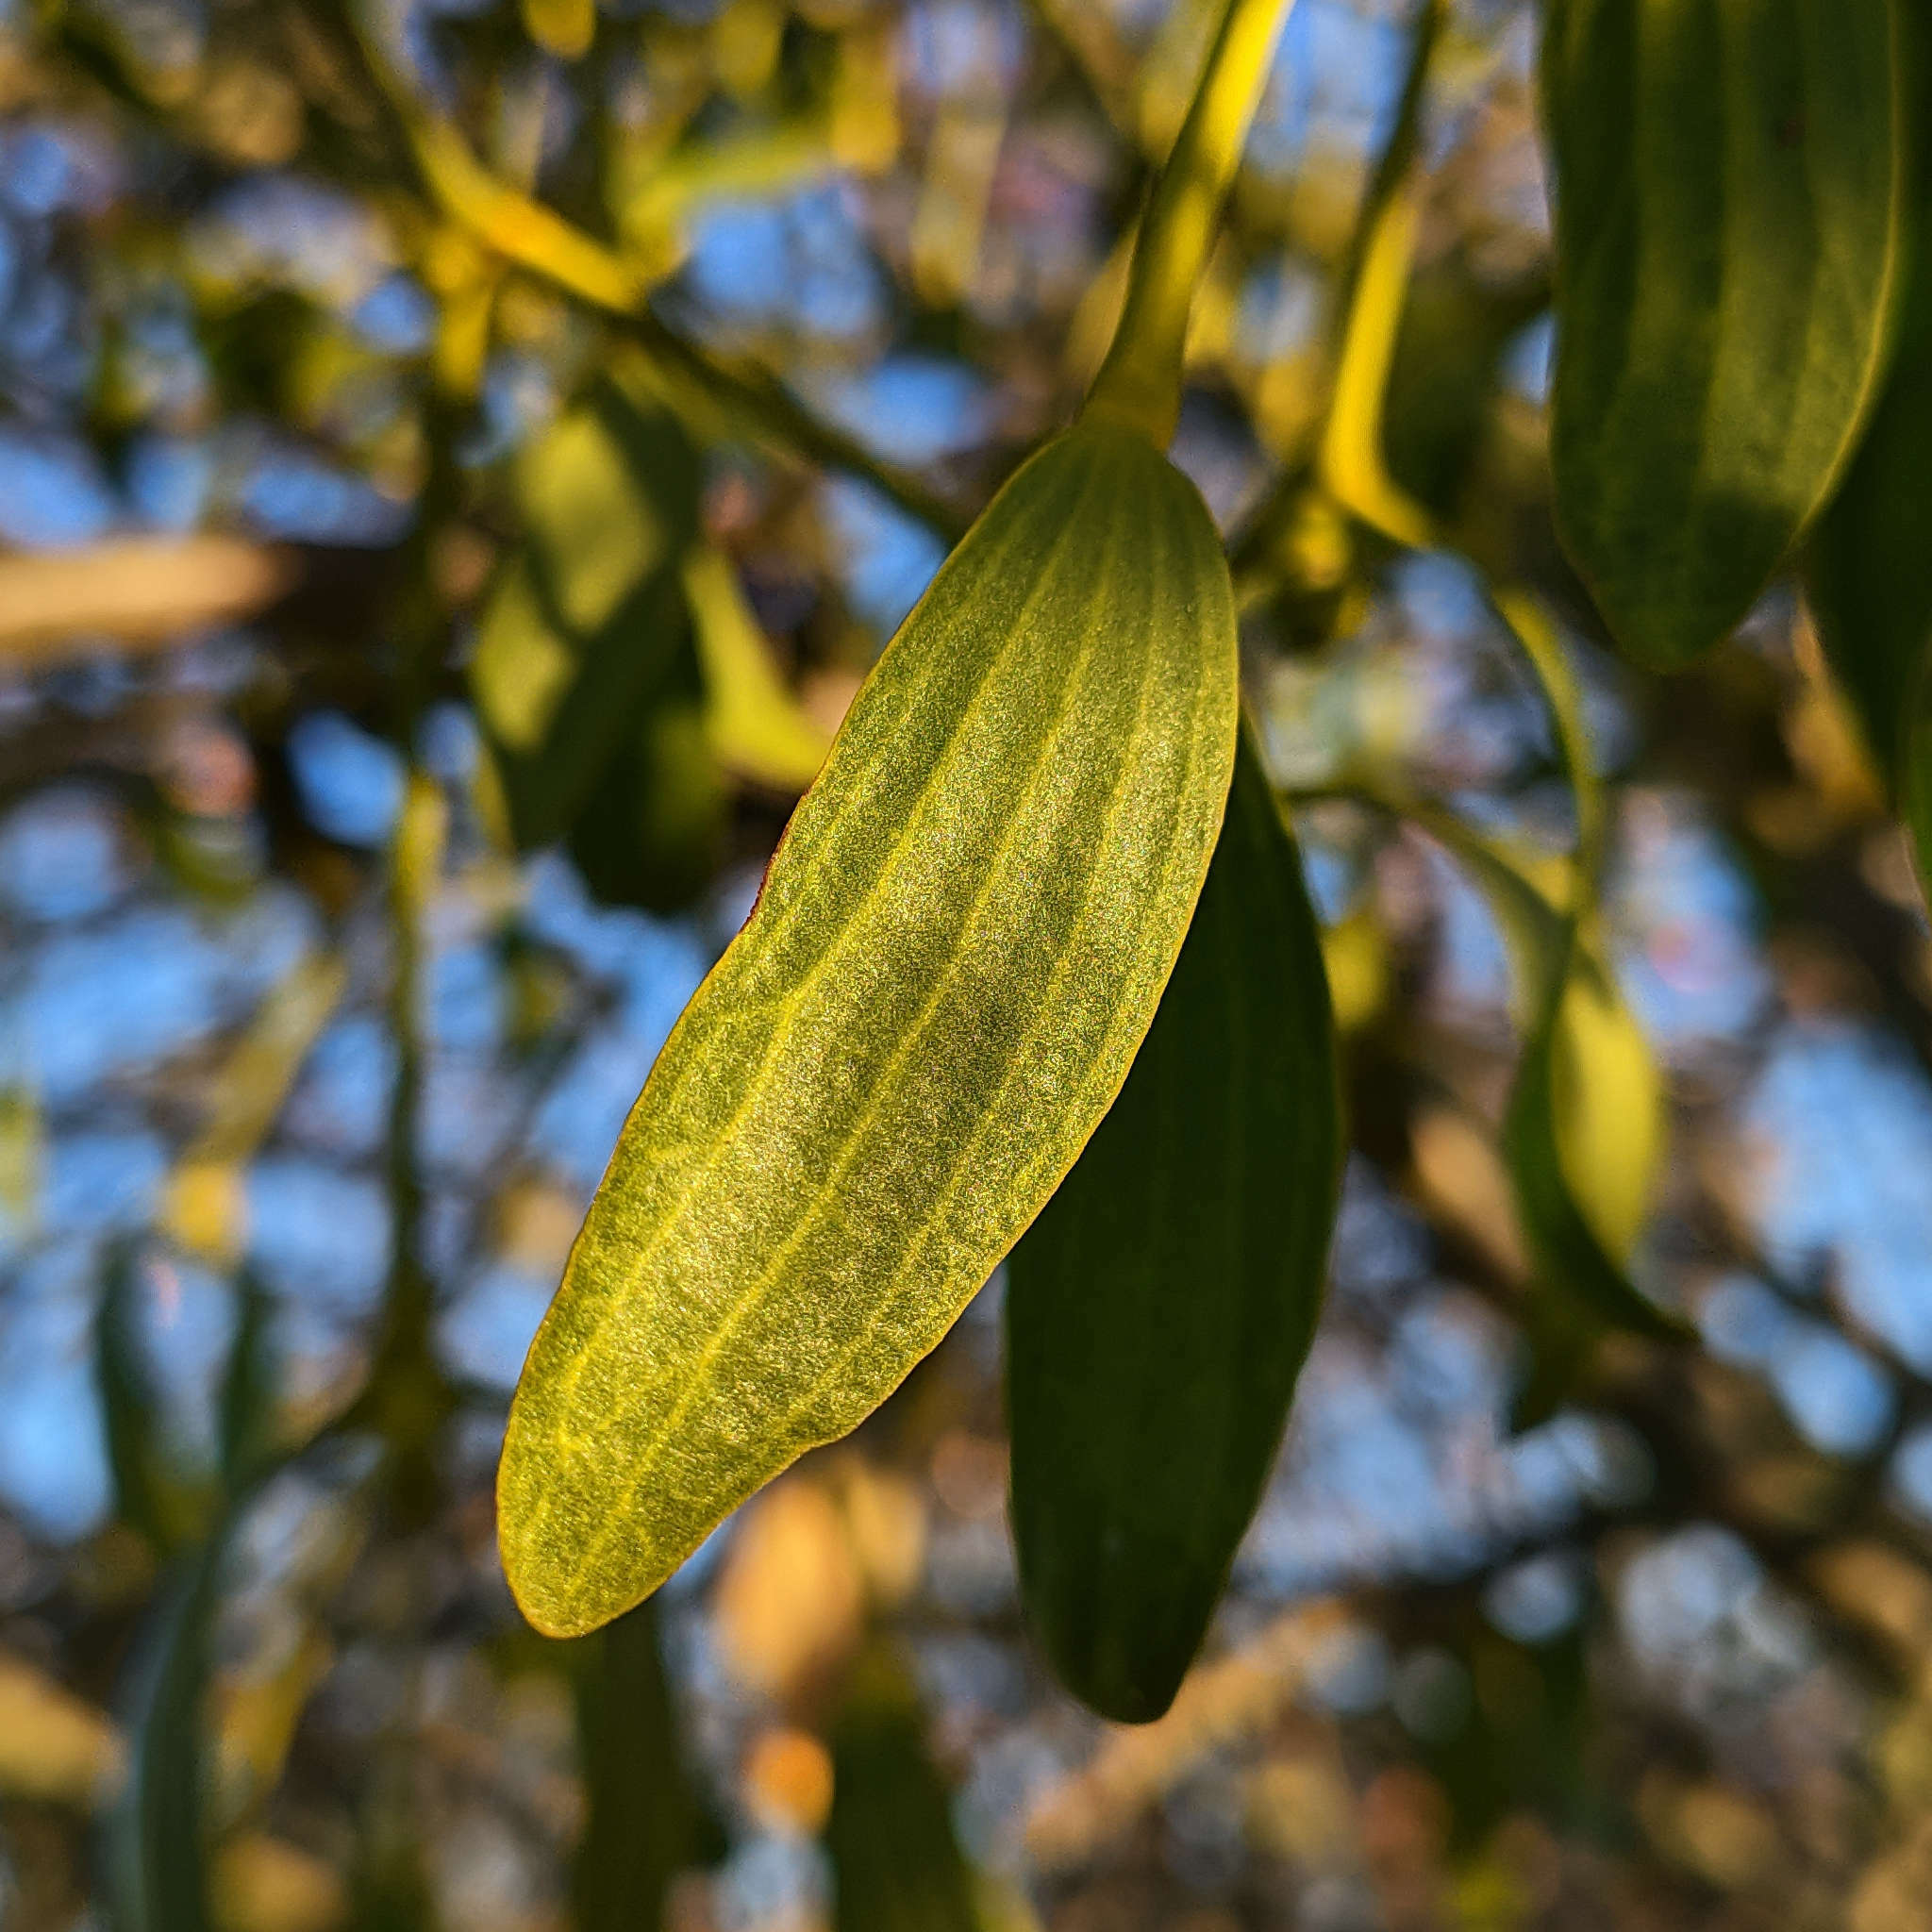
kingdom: Plantae
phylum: Tracheophyta
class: Magnoliopsida
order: Santalales
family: Viscaceae
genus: Viscum
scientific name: Viscum album
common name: Mistletoe
